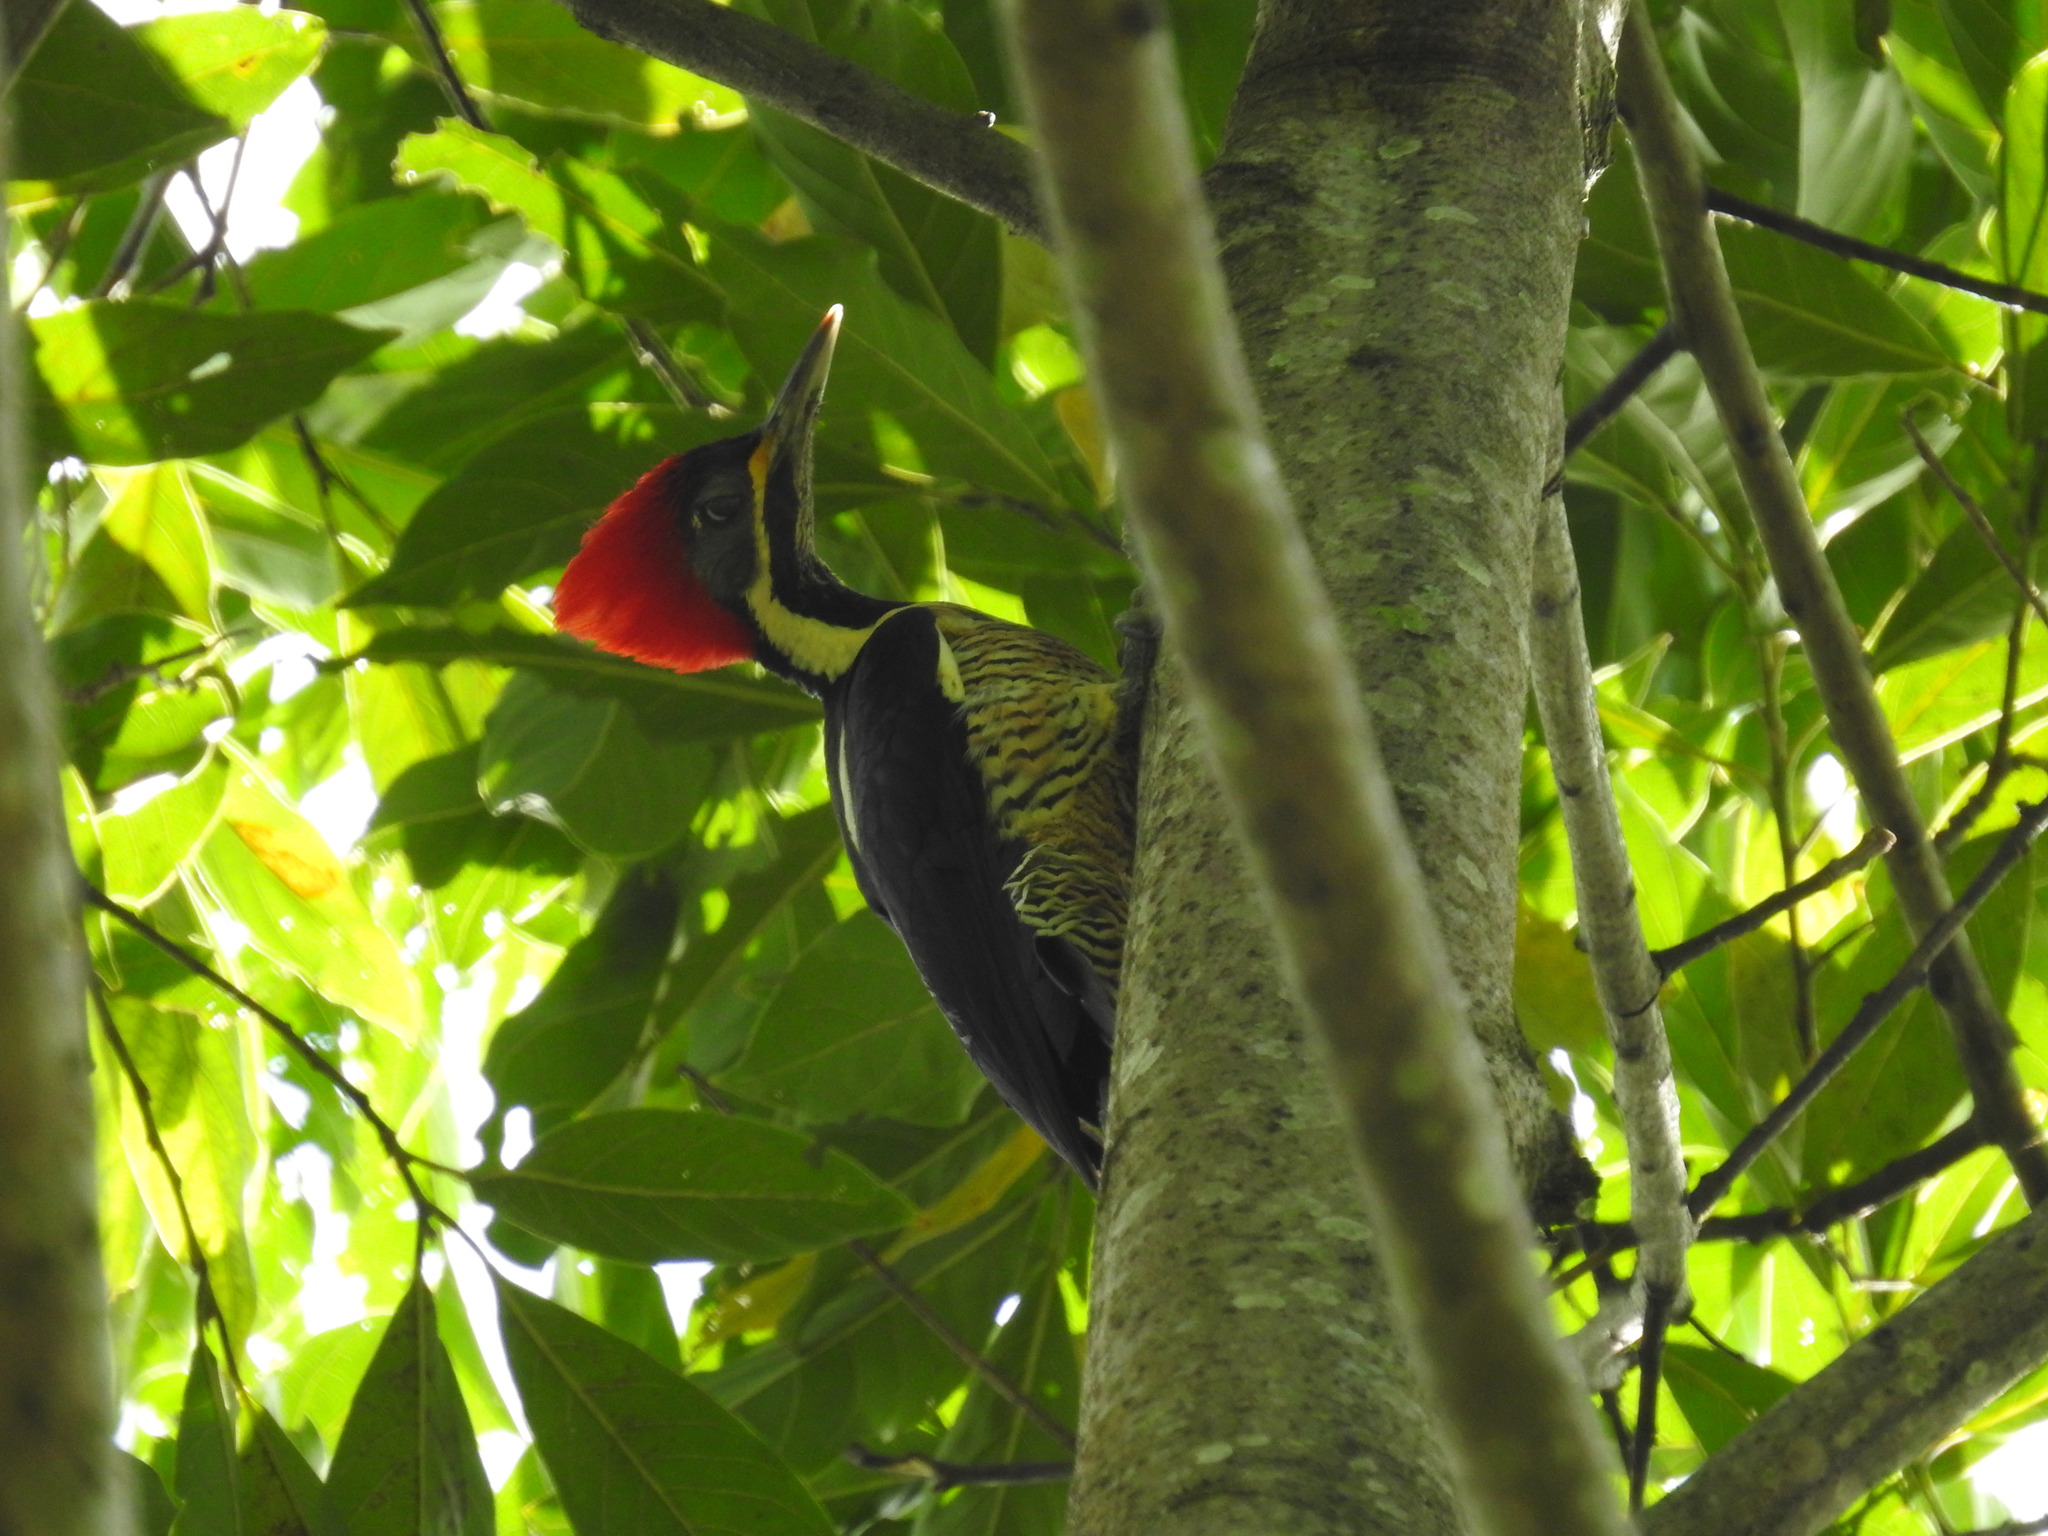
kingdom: Animalia
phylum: Chordata
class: Aves
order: Piciformes
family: Picidae
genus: Dryocopus
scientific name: Dryocopus lineatus
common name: Lineated woodpecker
